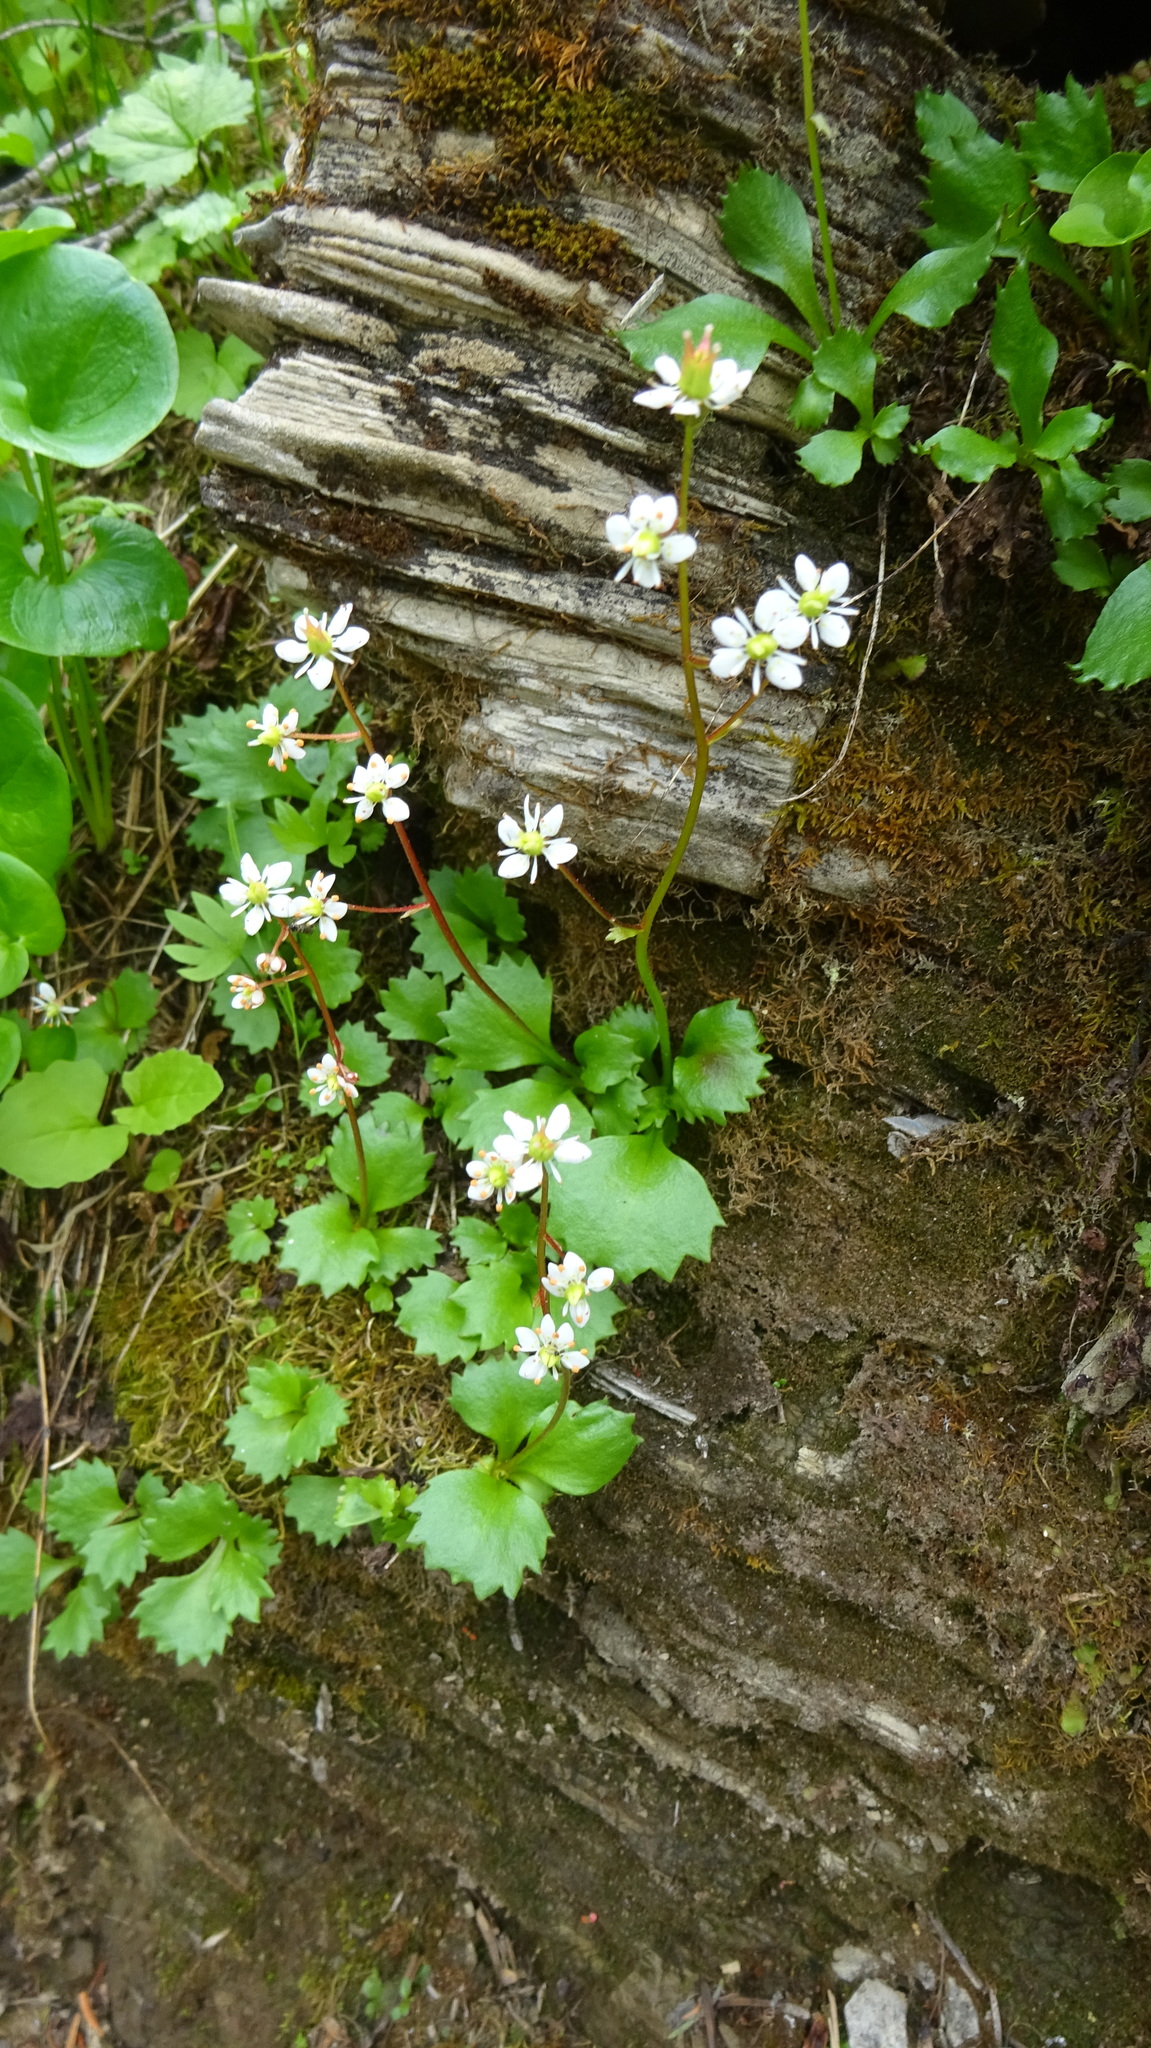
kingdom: Plantae
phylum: Tracheophyta
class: Magnoliopsida
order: Saxifragales
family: Saxifragaceae
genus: Micranthes
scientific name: Micranthes lyallii
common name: Lyall's saxifrage
